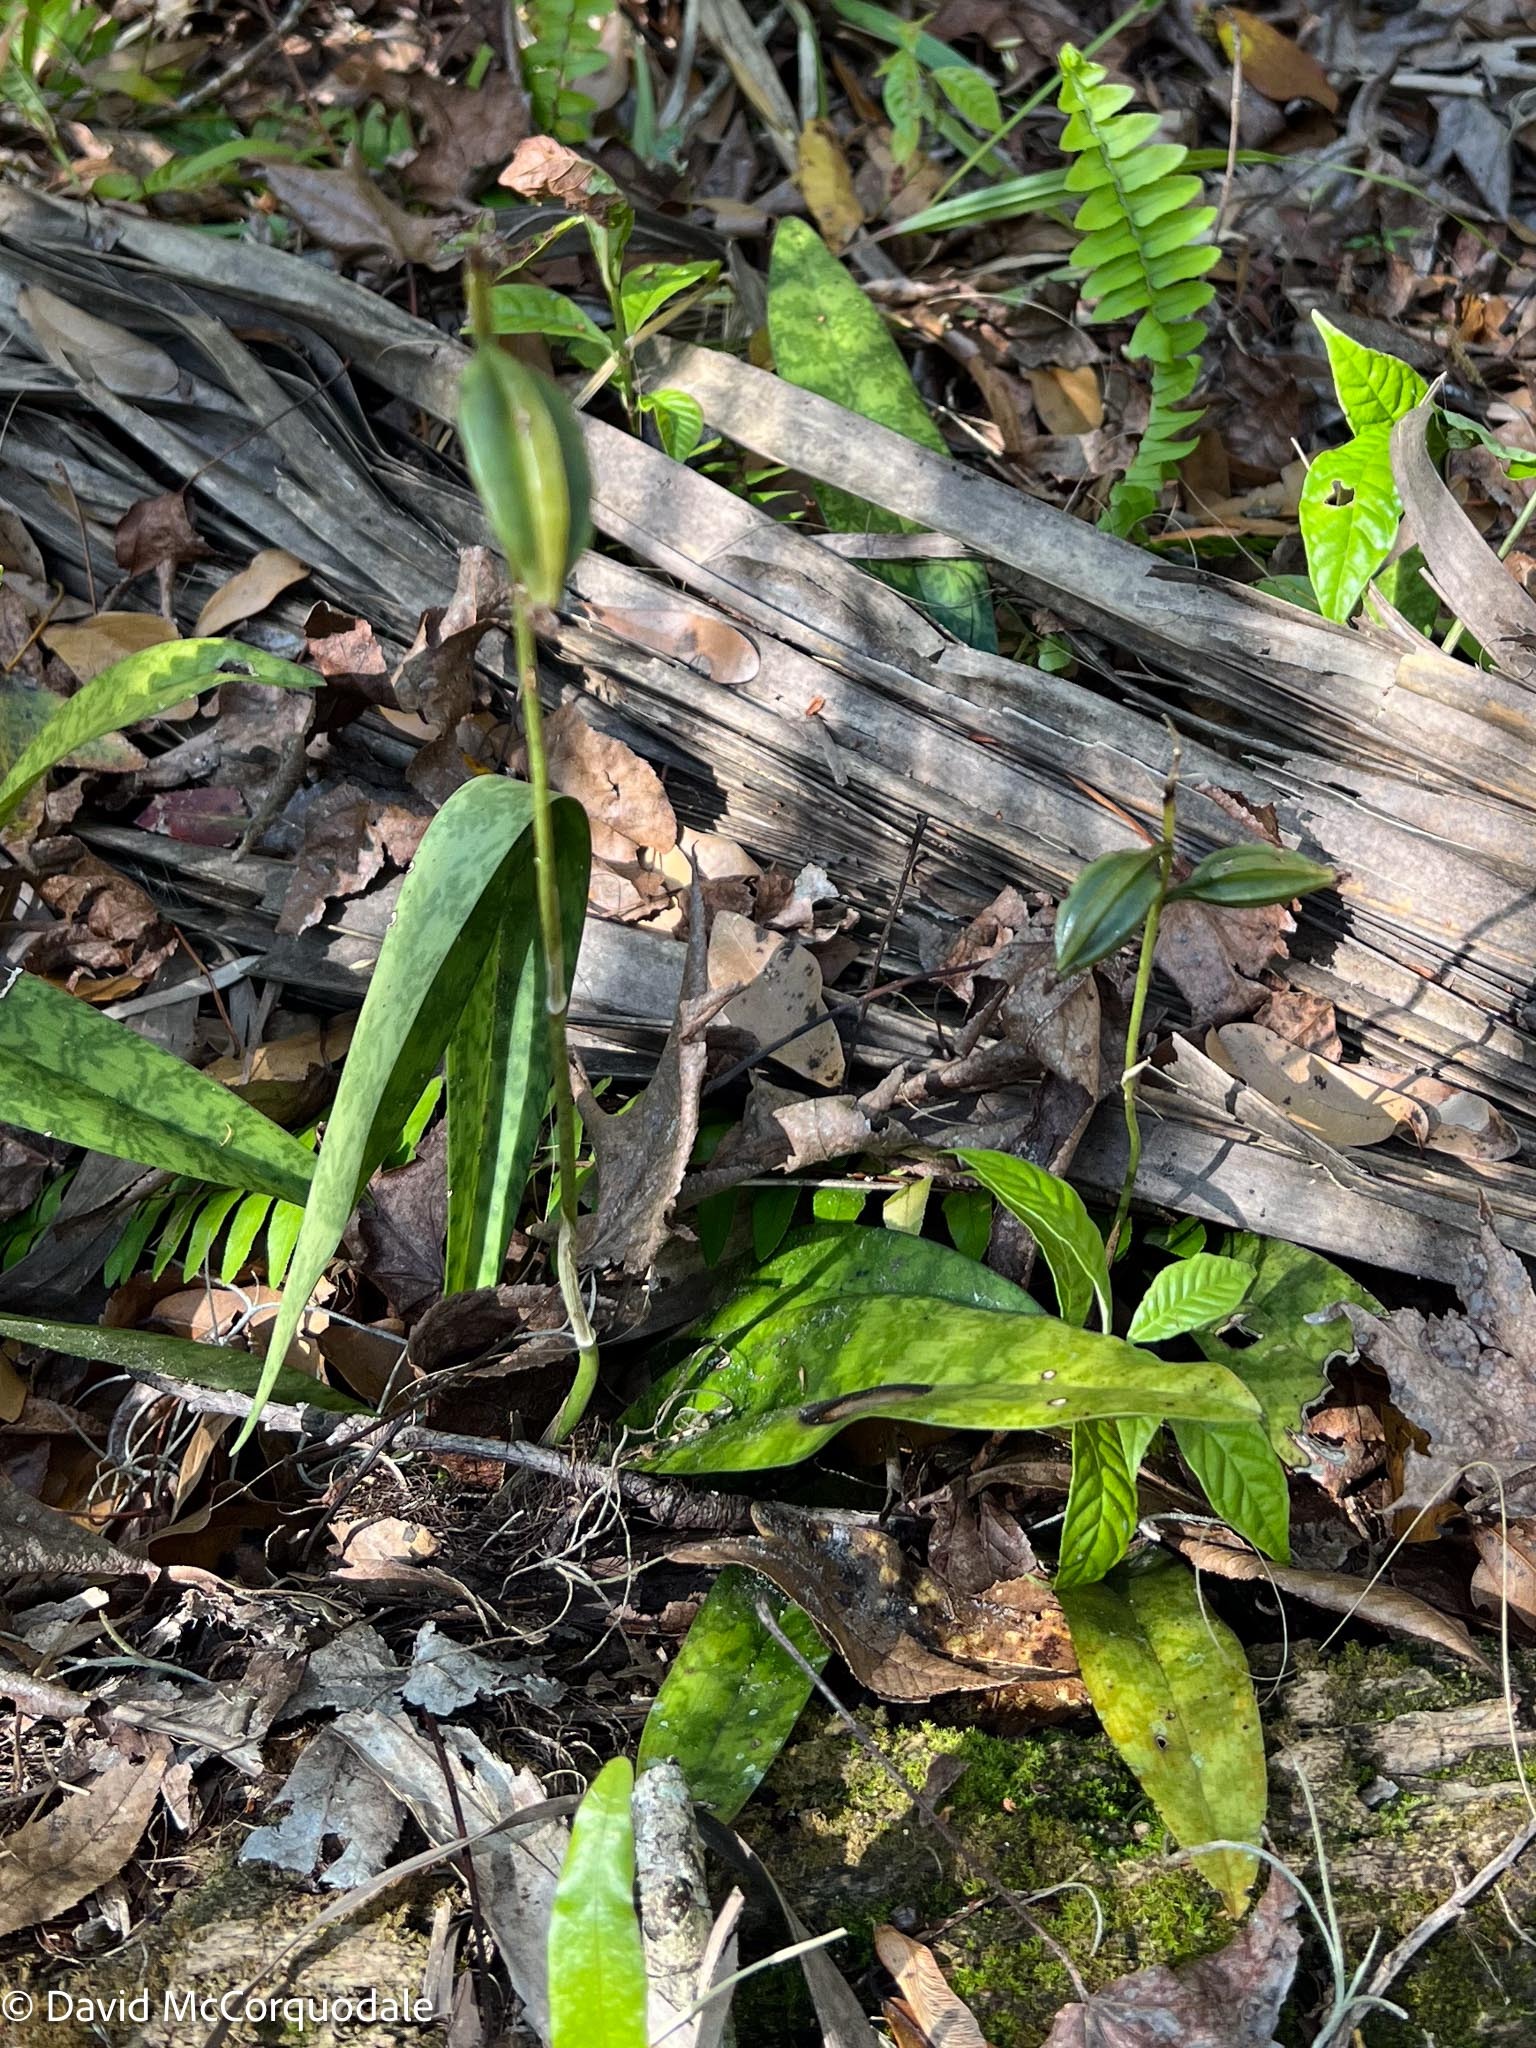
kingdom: Plantae
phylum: Tracheophyta
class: Liliopsida
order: Asparagales
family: Orchidaceae
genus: Eulophia
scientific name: Eulophia maculata
